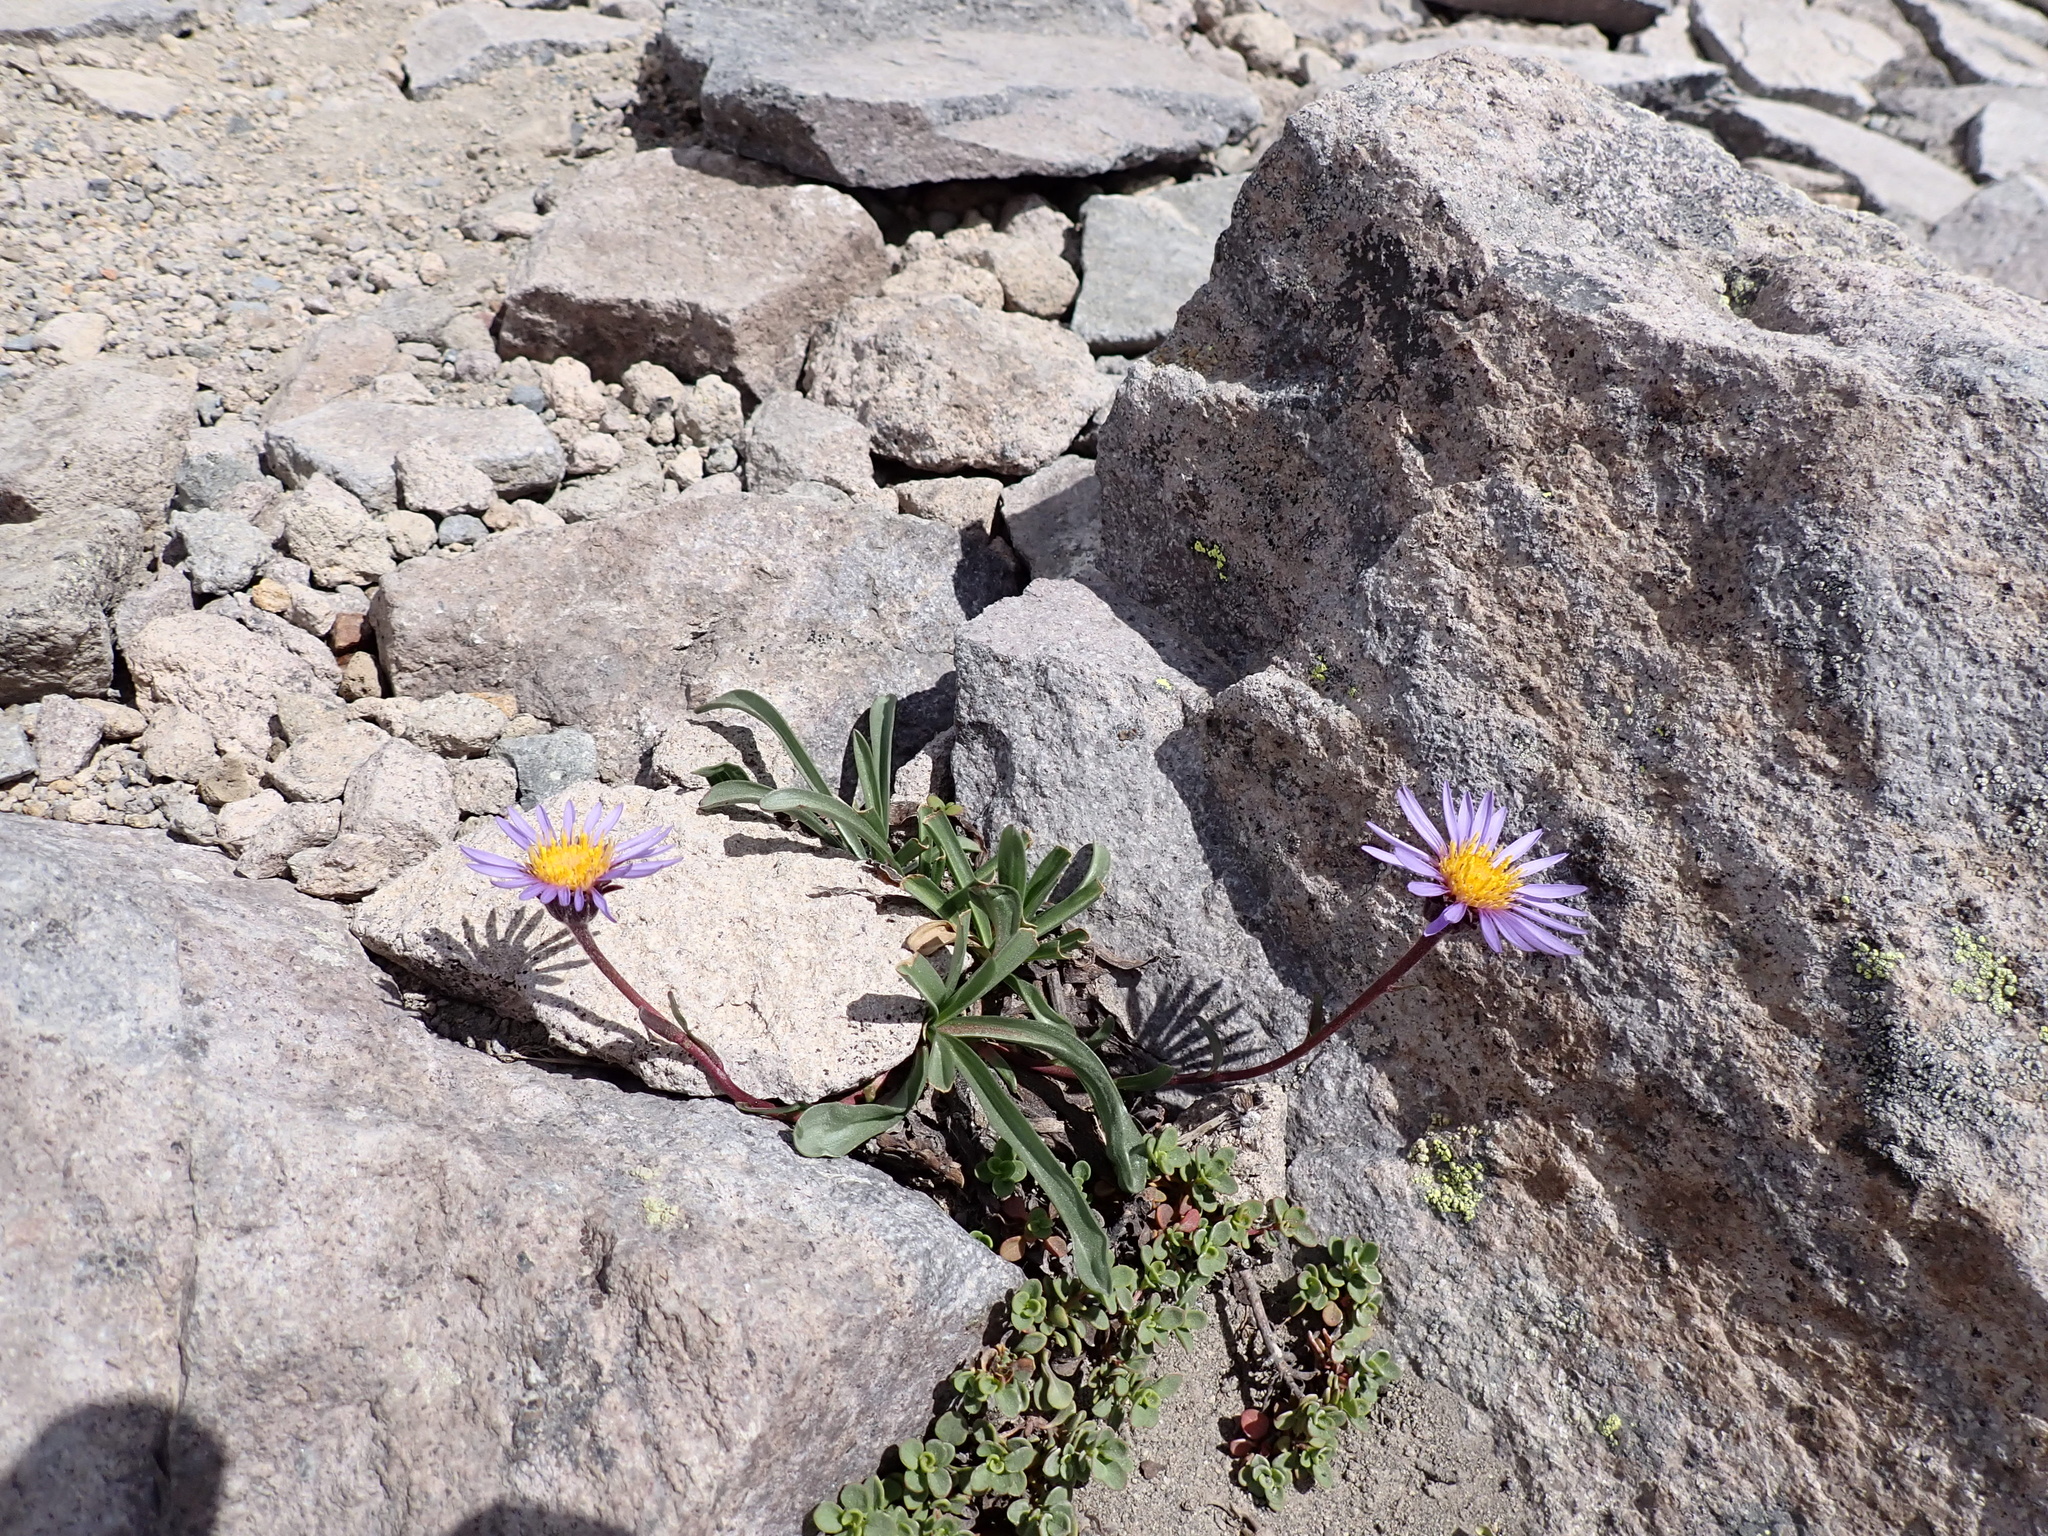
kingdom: Plantae
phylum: Tracheophyta
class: Magnoliopsida
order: Asterales
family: Asteraceae
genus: Oreostemma
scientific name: Oreostemma alpigenum
